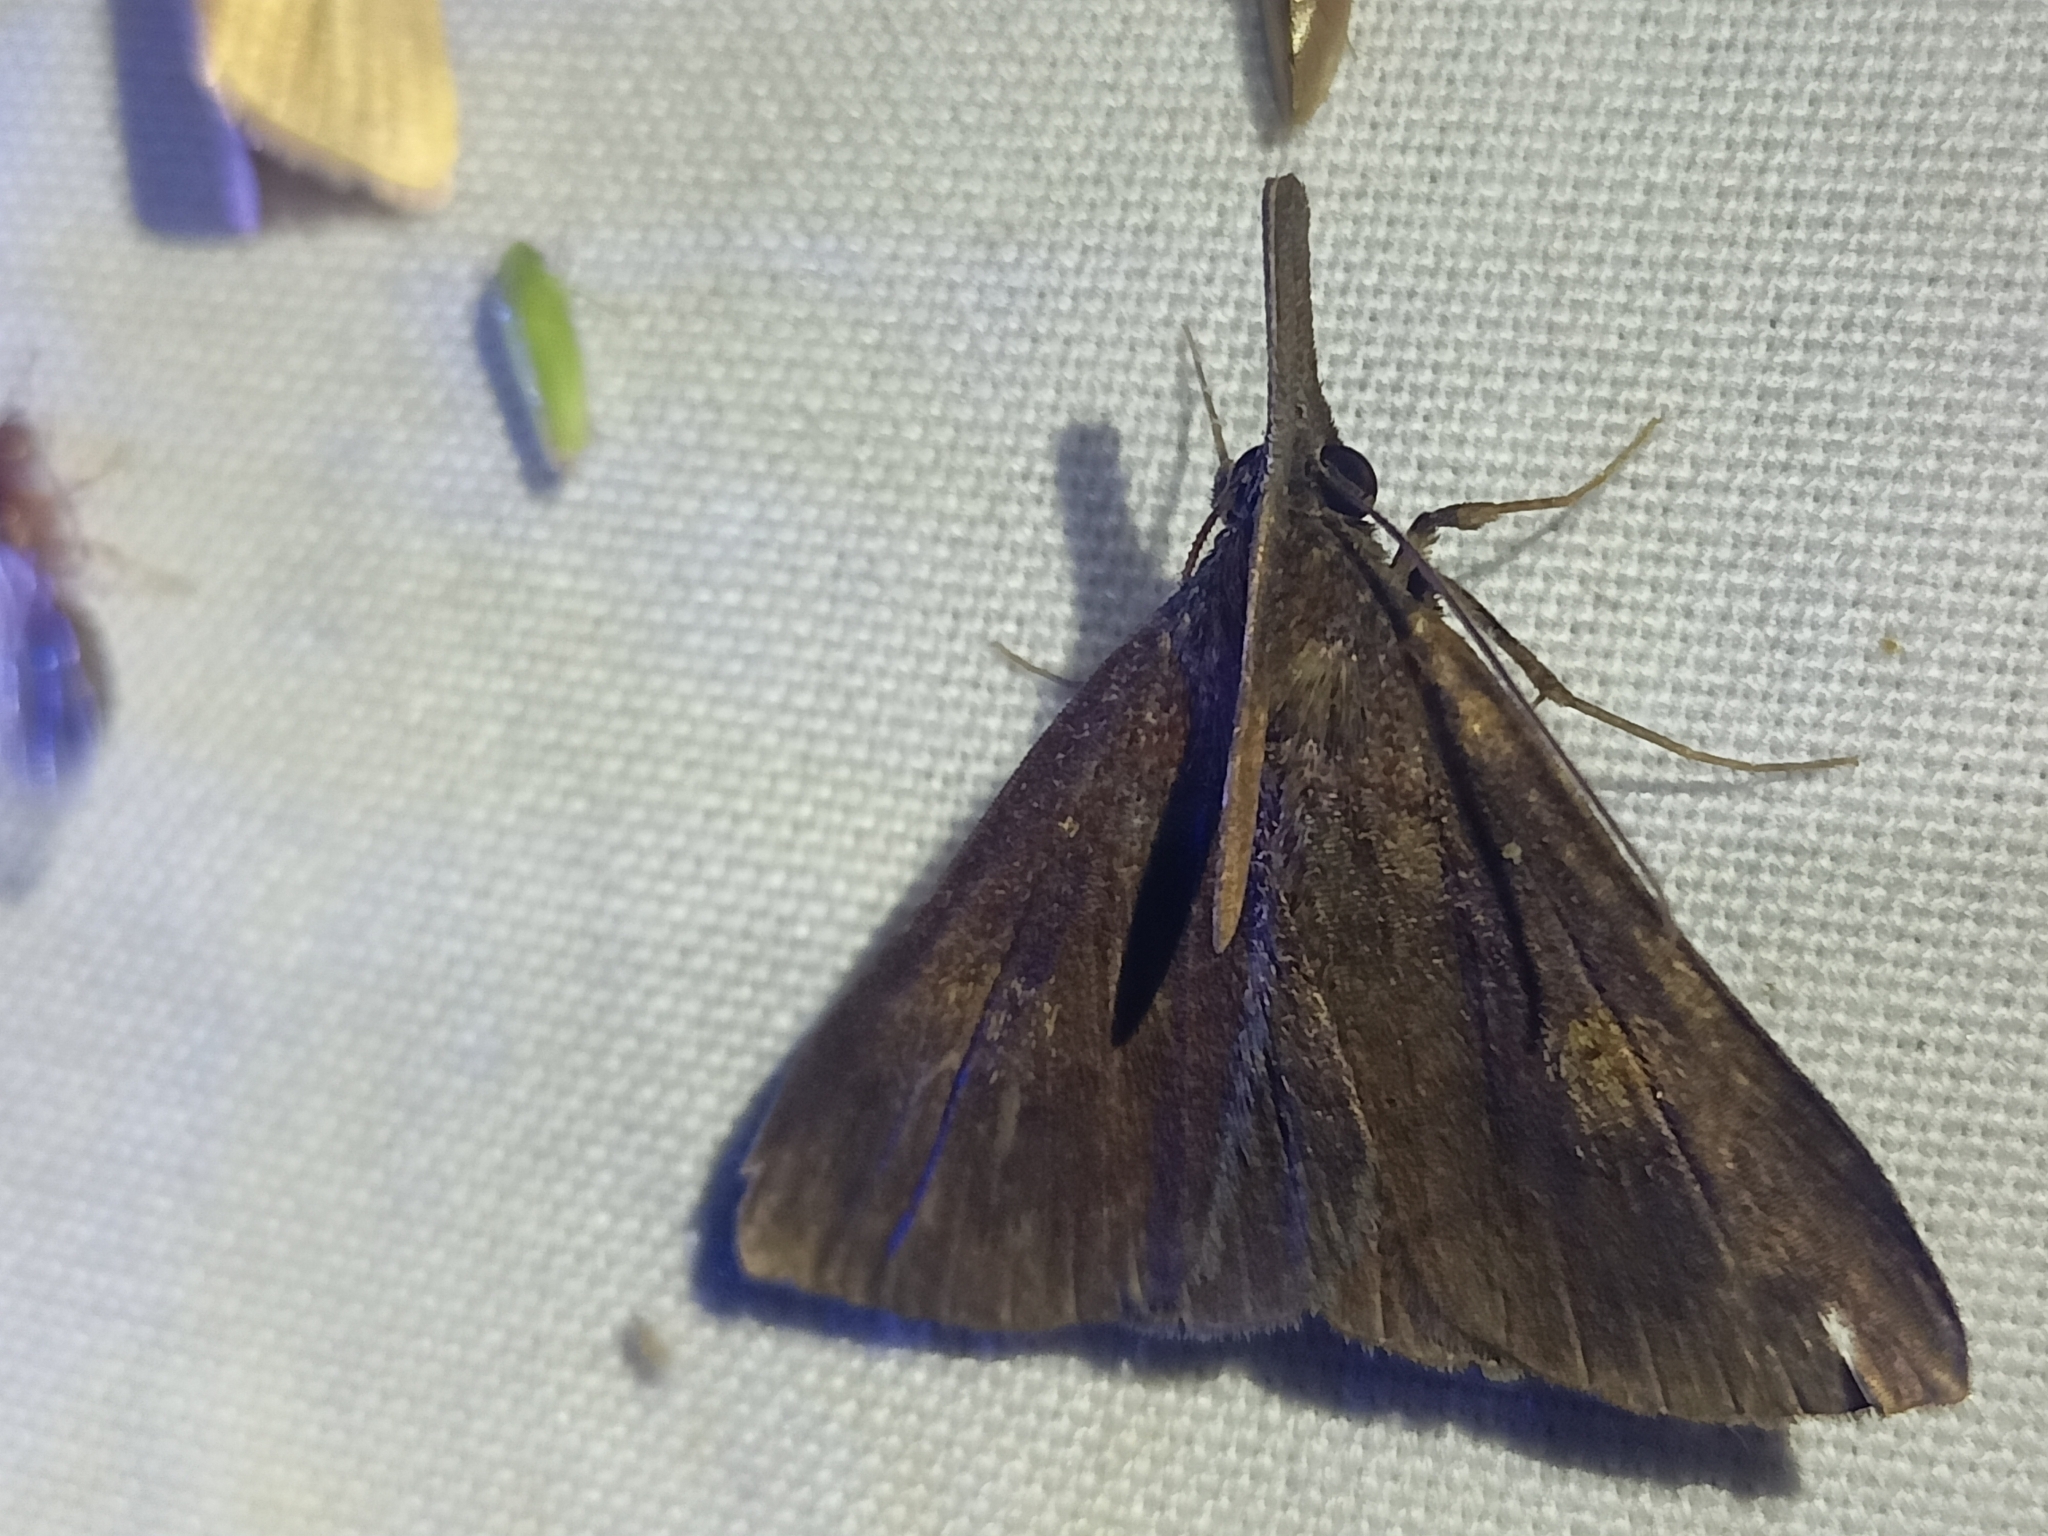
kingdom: Animalia
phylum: Arthropoda
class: Insecta
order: Lepidoptera
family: Erebidae
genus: Oxaenanus
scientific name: Oxaenanus brontesalis
